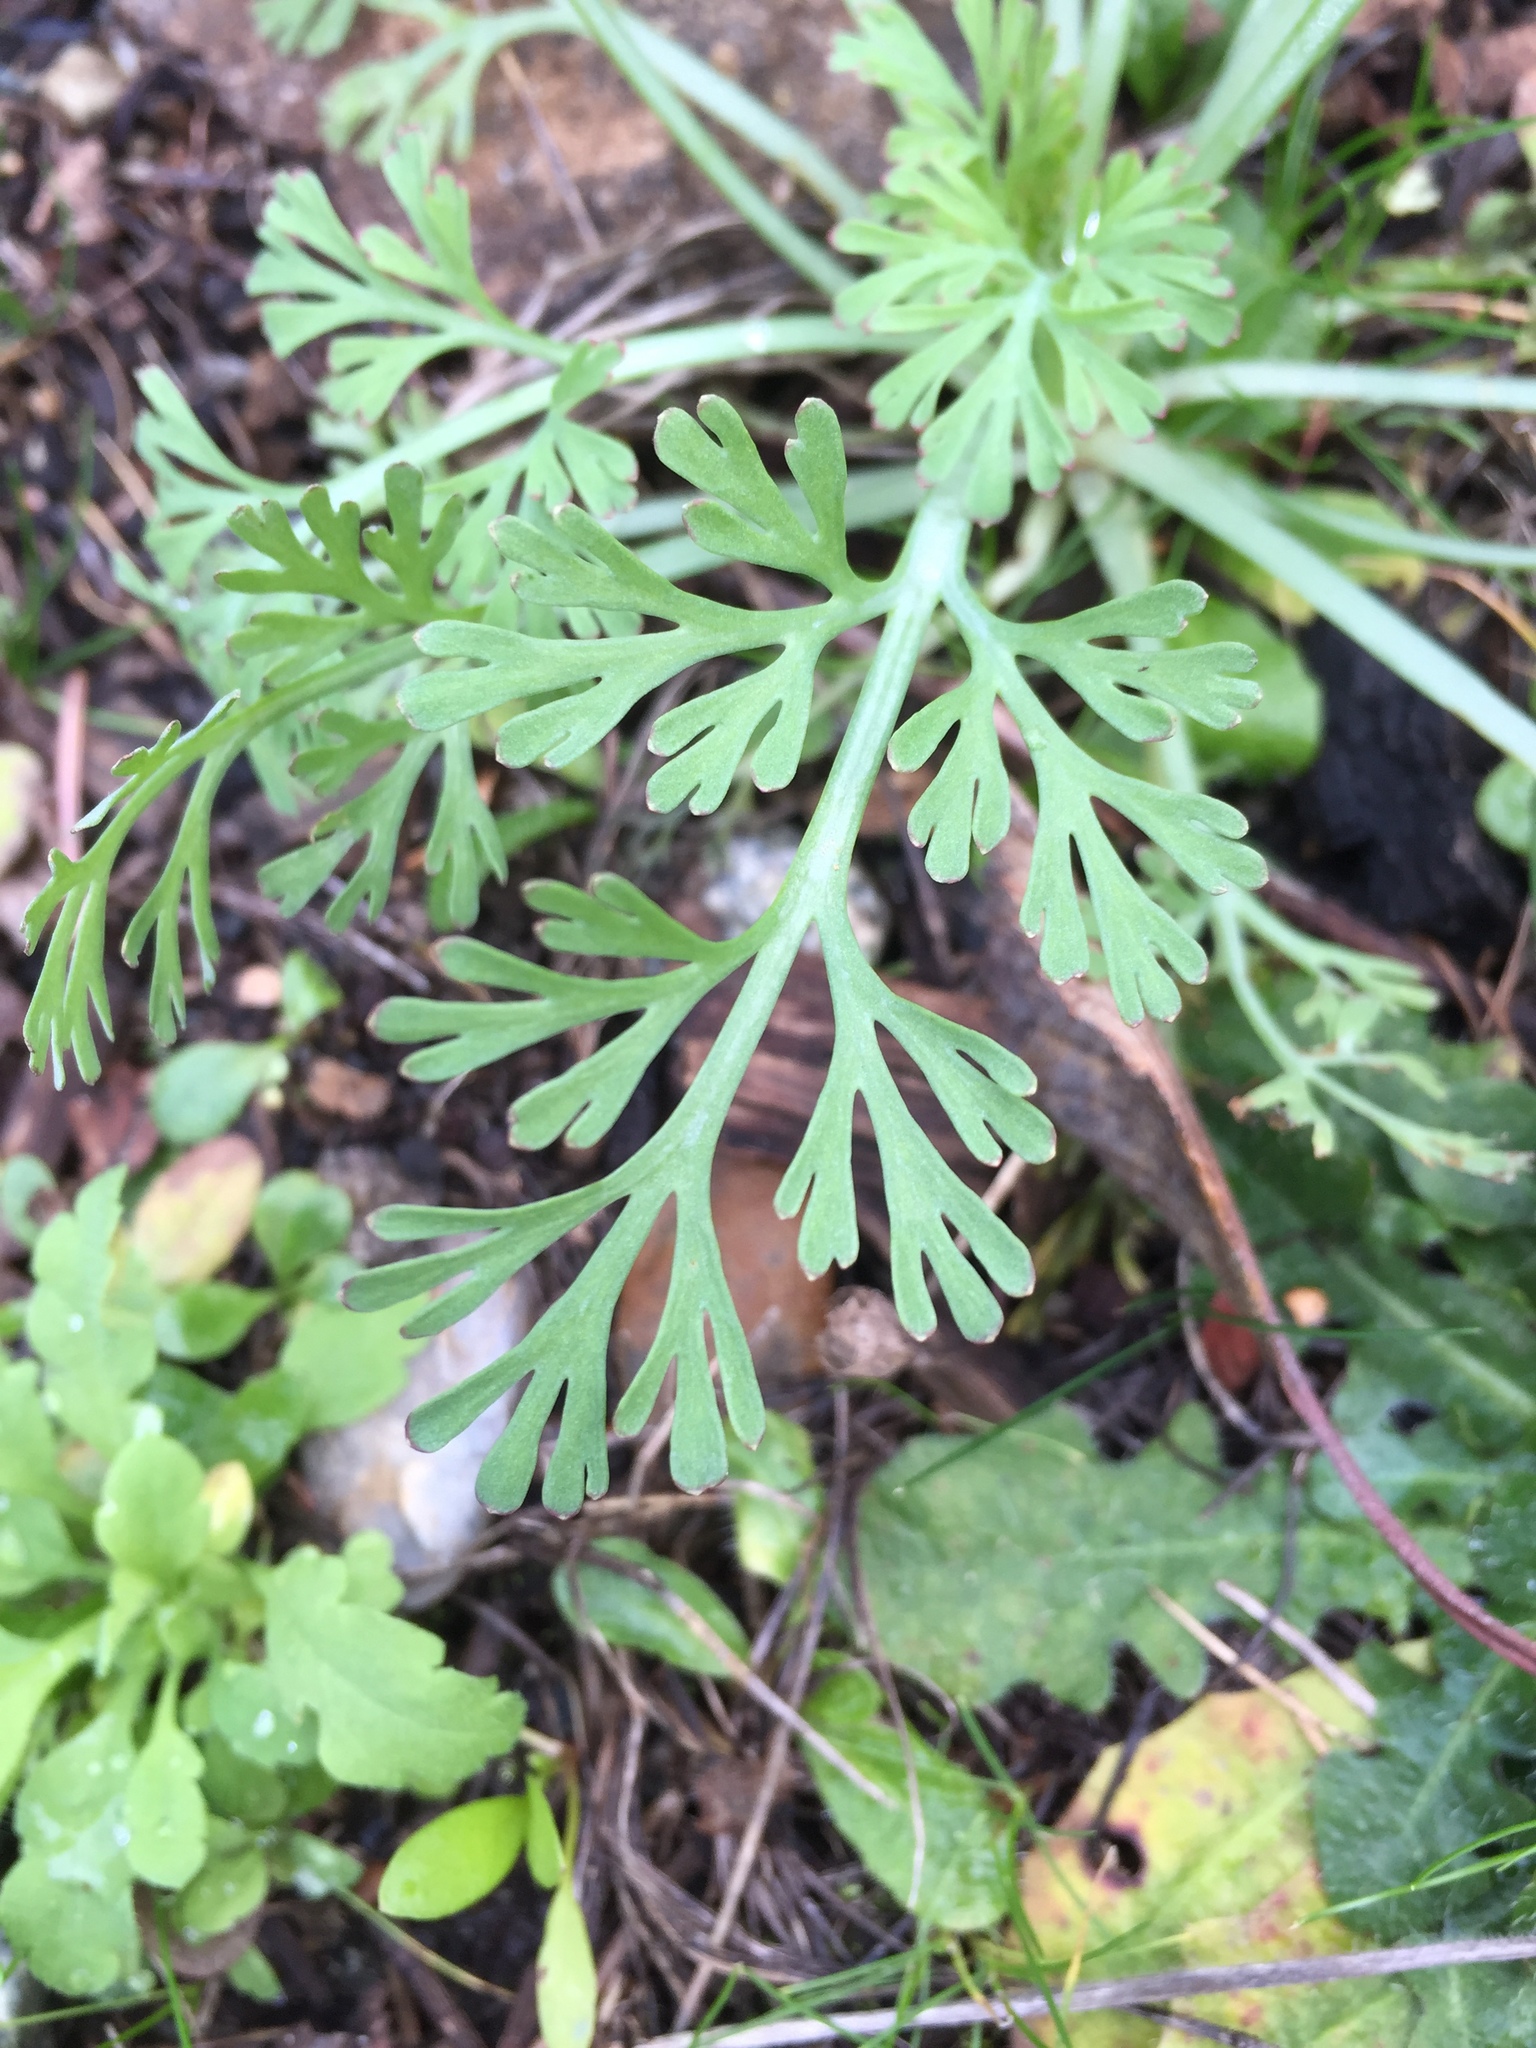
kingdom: Plantae
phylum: Tracheophyta
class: Magnoliopsida
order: Ranunculales
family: Papaveraceae
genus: Eschscholzia
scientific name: Eschscholzia californica
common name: California poppy
